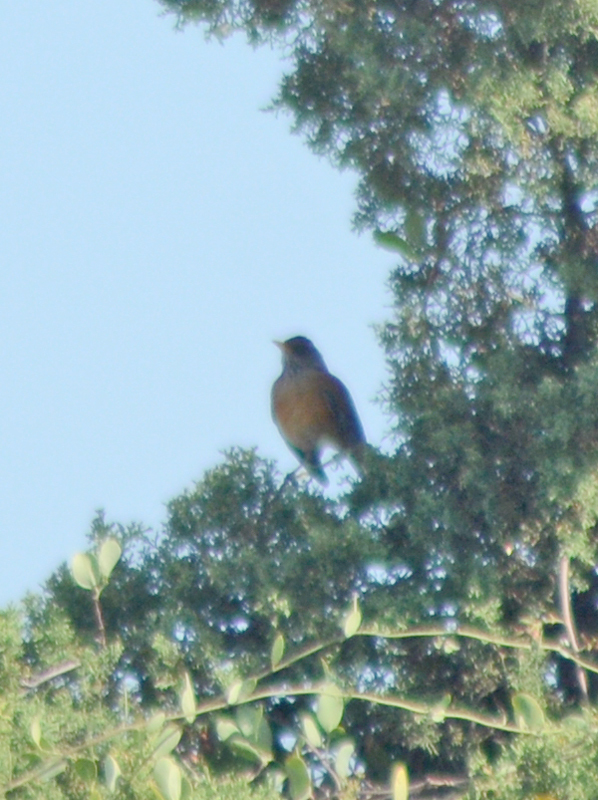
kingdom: Animalia
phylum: Chordata
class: Aves
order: Passeriformes
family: Turdidae
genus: Turdus
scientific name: Turdus migratorius
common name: American robin
